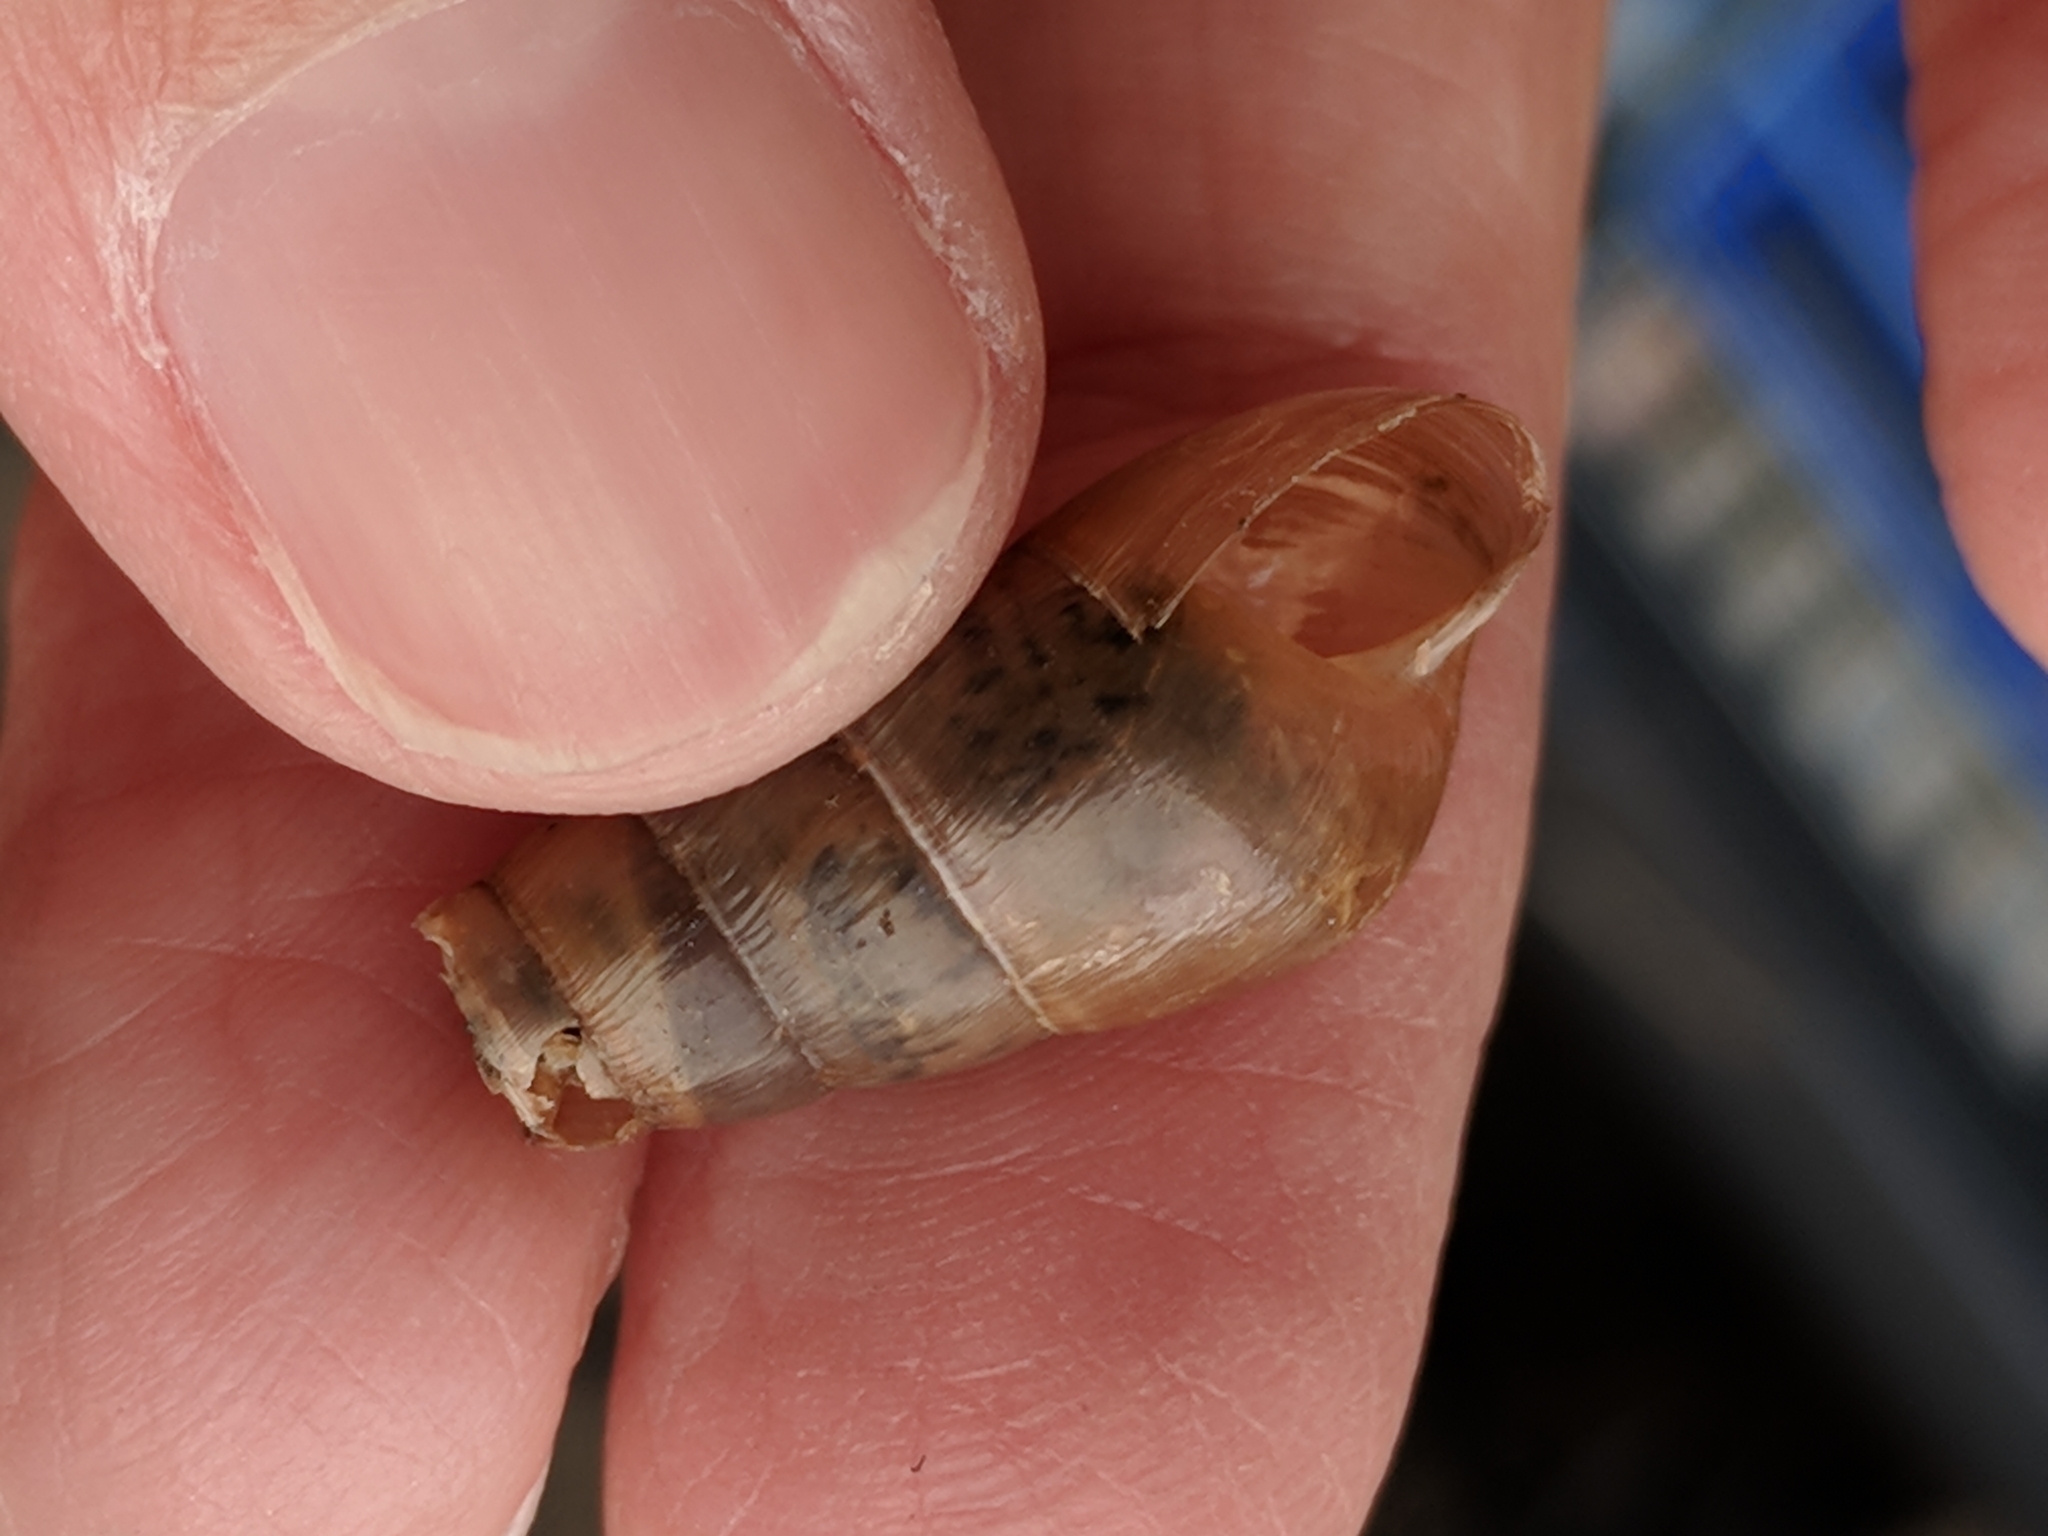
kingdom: Animalia
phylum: Mollusca
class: Gastropoda
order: Stylommatophora
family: Achatinidae
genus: Rumina
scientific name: Rumina decollata
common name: Decollate snail
